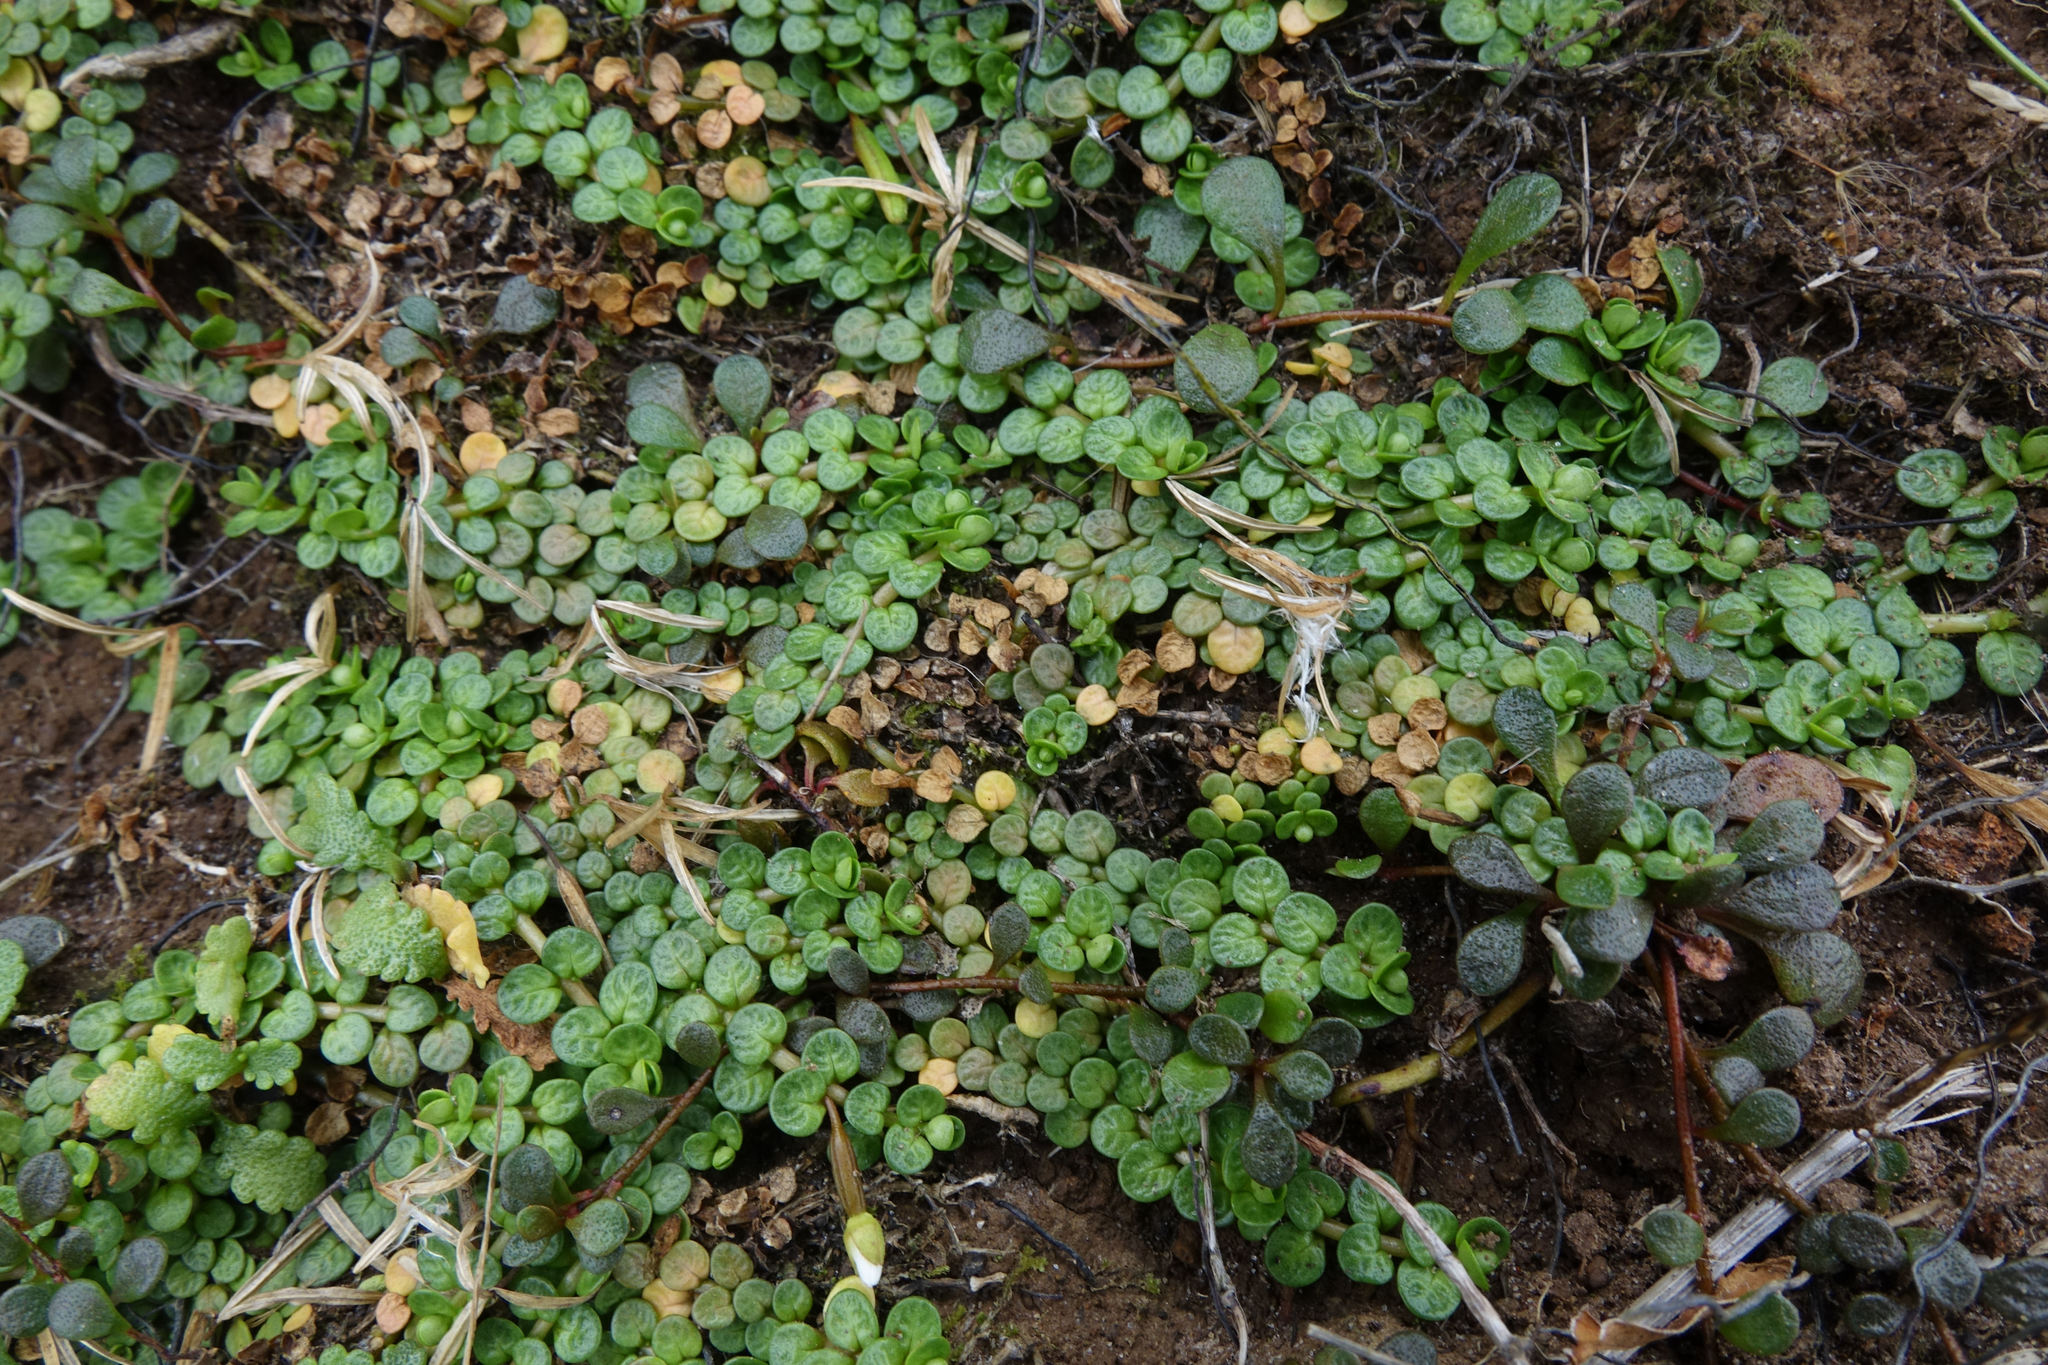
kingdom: Plantae
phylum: Tracheophyta
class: Magnoliopsida
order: Myrtales
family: Onagraceae
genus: Epilobium
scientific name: Epilobium komarovianum
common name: Bronzy willowherb
